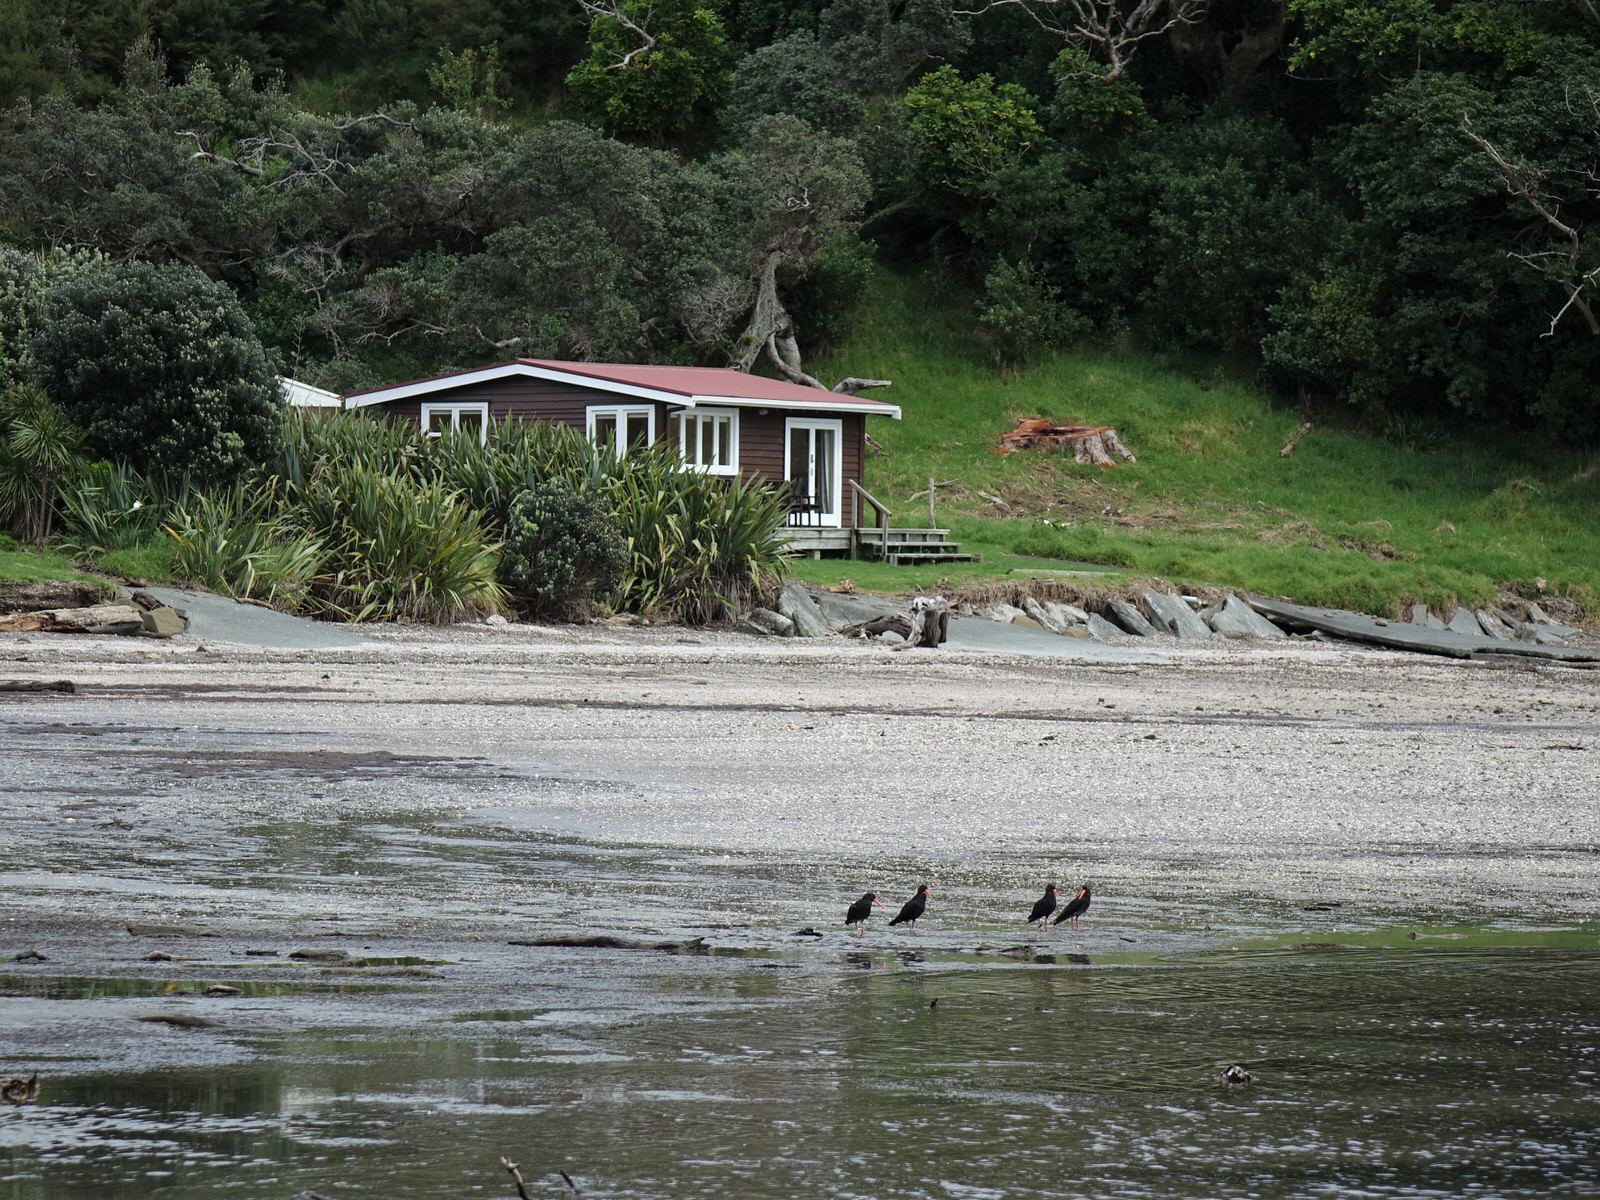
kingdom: Animalia
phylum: Chordata
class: Aves
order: Charadriiformes
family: Haematopodidae
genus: Haematopus
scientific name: Haematopus unicolor
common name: Variable oystercatcher
